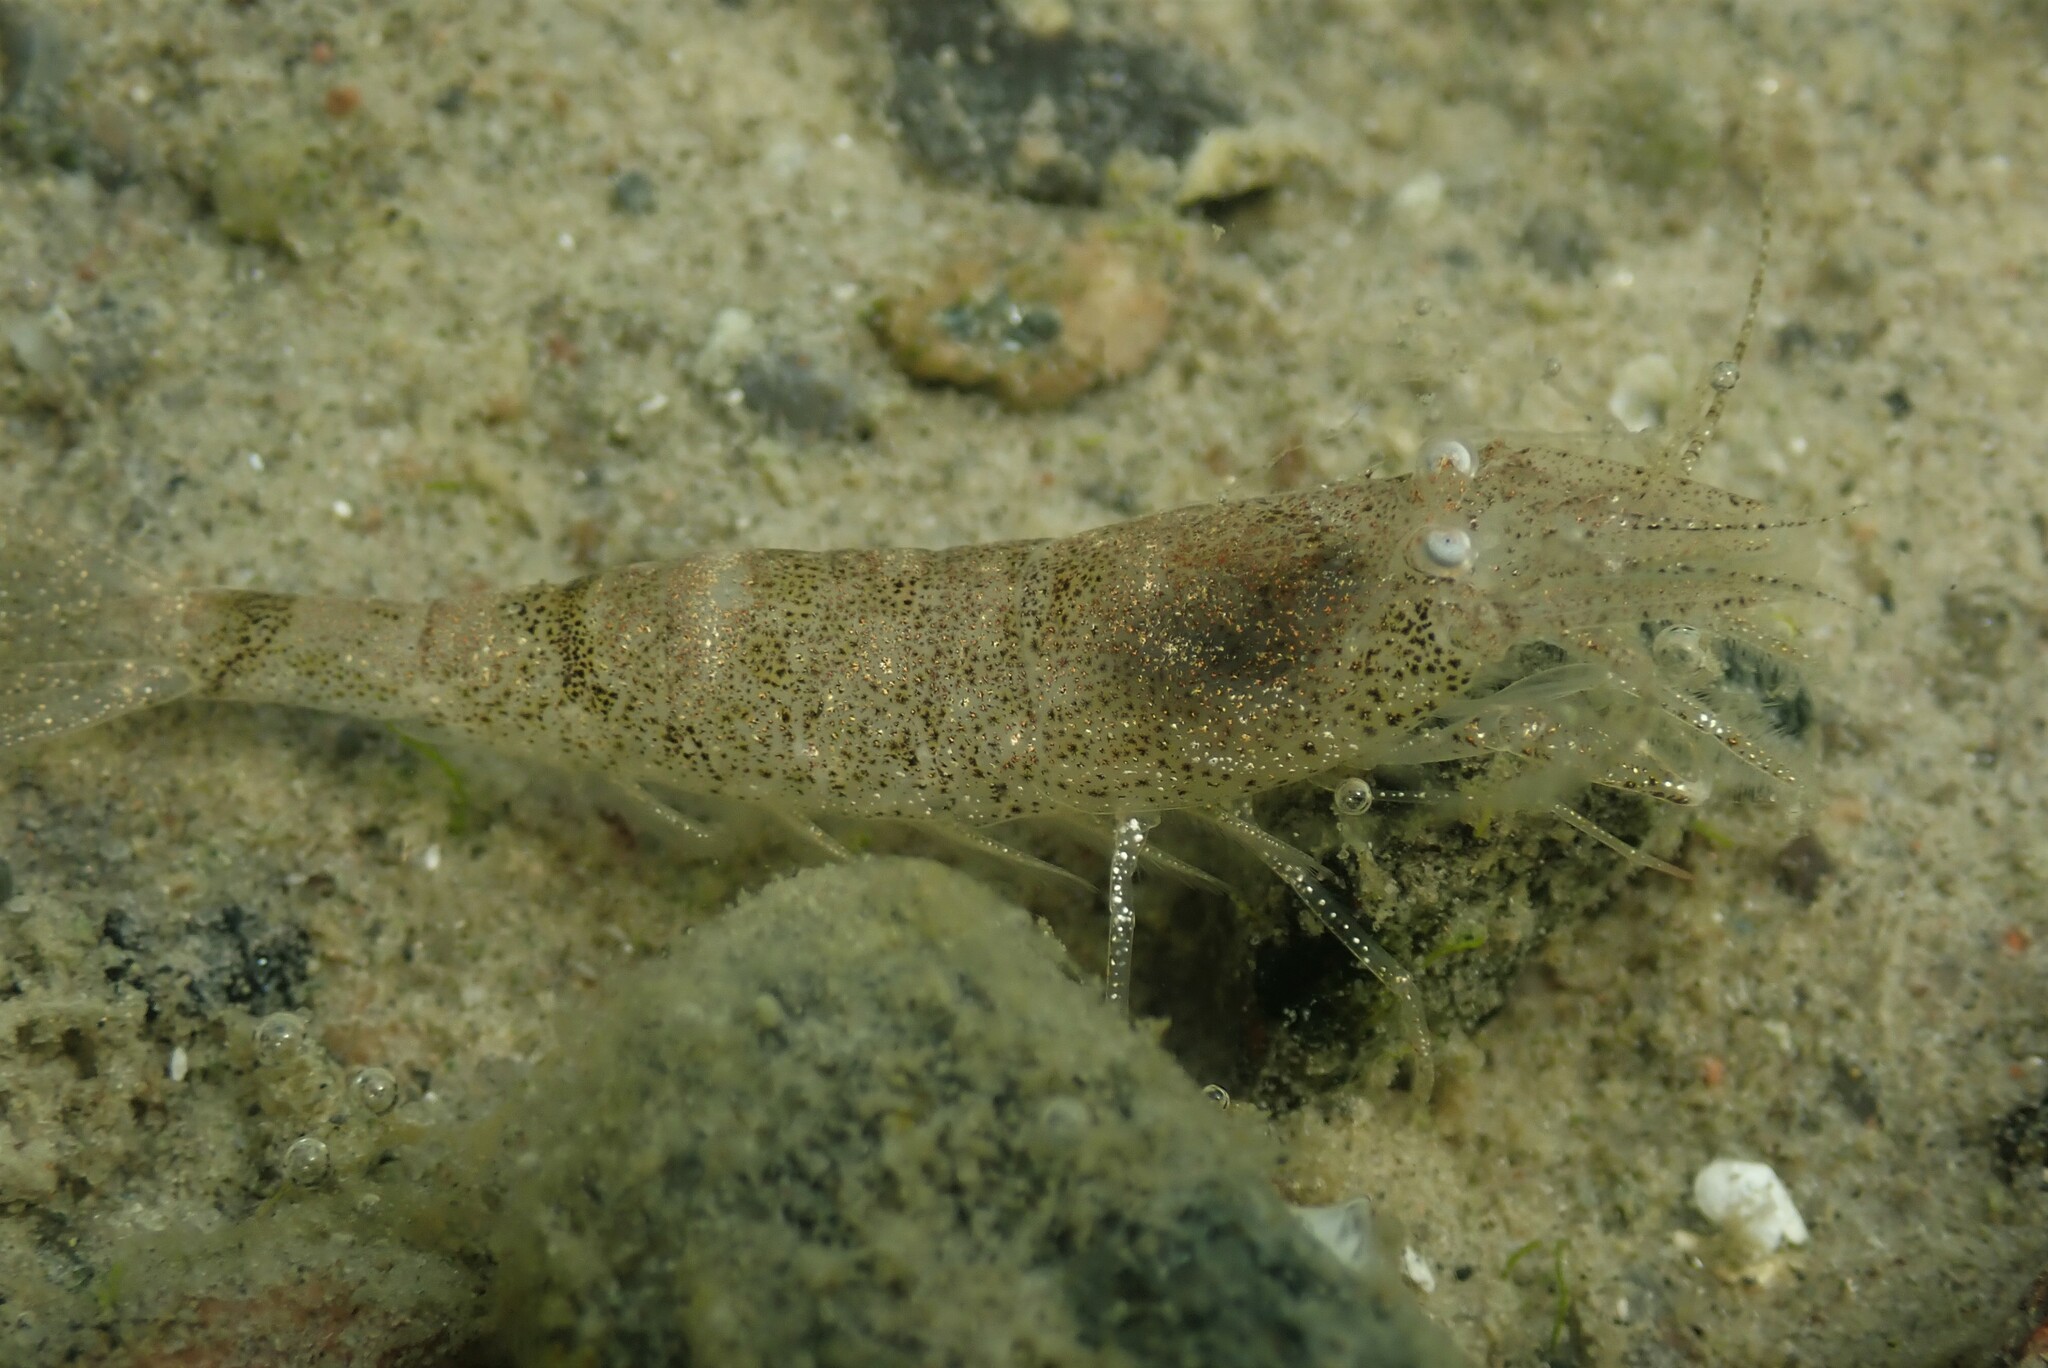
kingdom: Animalia
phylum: Arthropoda
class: Malacostraca
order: Decapoda
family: Crangonidae
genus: Crangon
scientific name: Crangon crangon
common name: Brown shrimp
